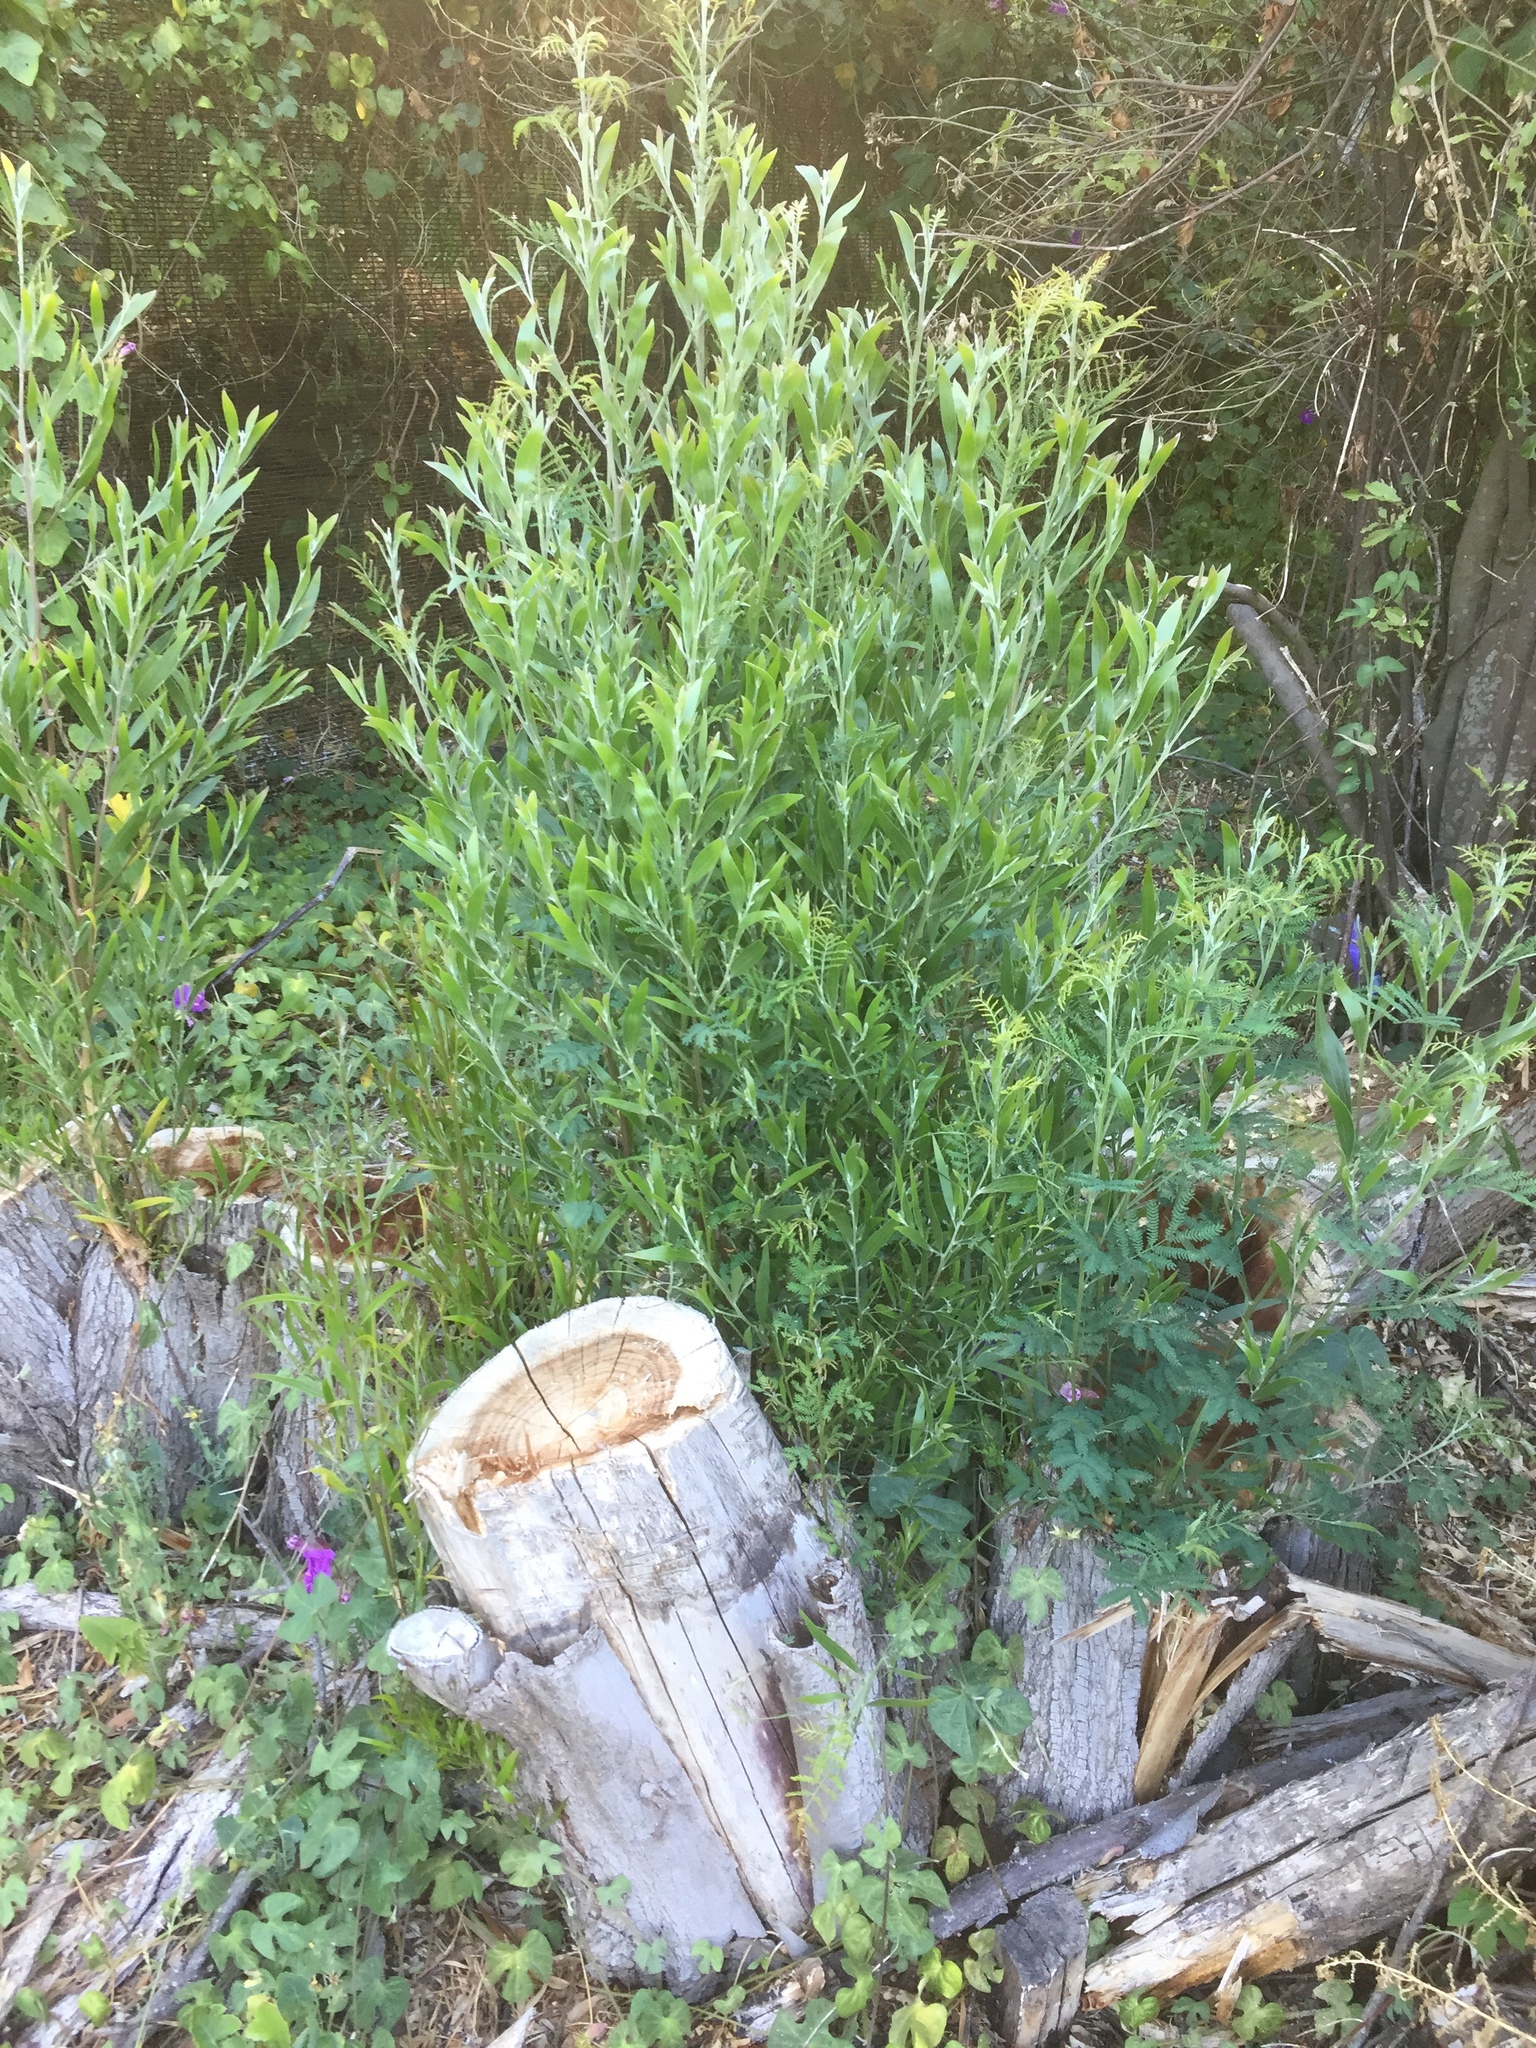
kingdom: Plantae
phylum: Tracheophyta
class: Magnoliopsida
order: Fabales
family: Fabaceae
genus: Acacia
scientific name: Acacia melanoxylon
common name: Blackwood
